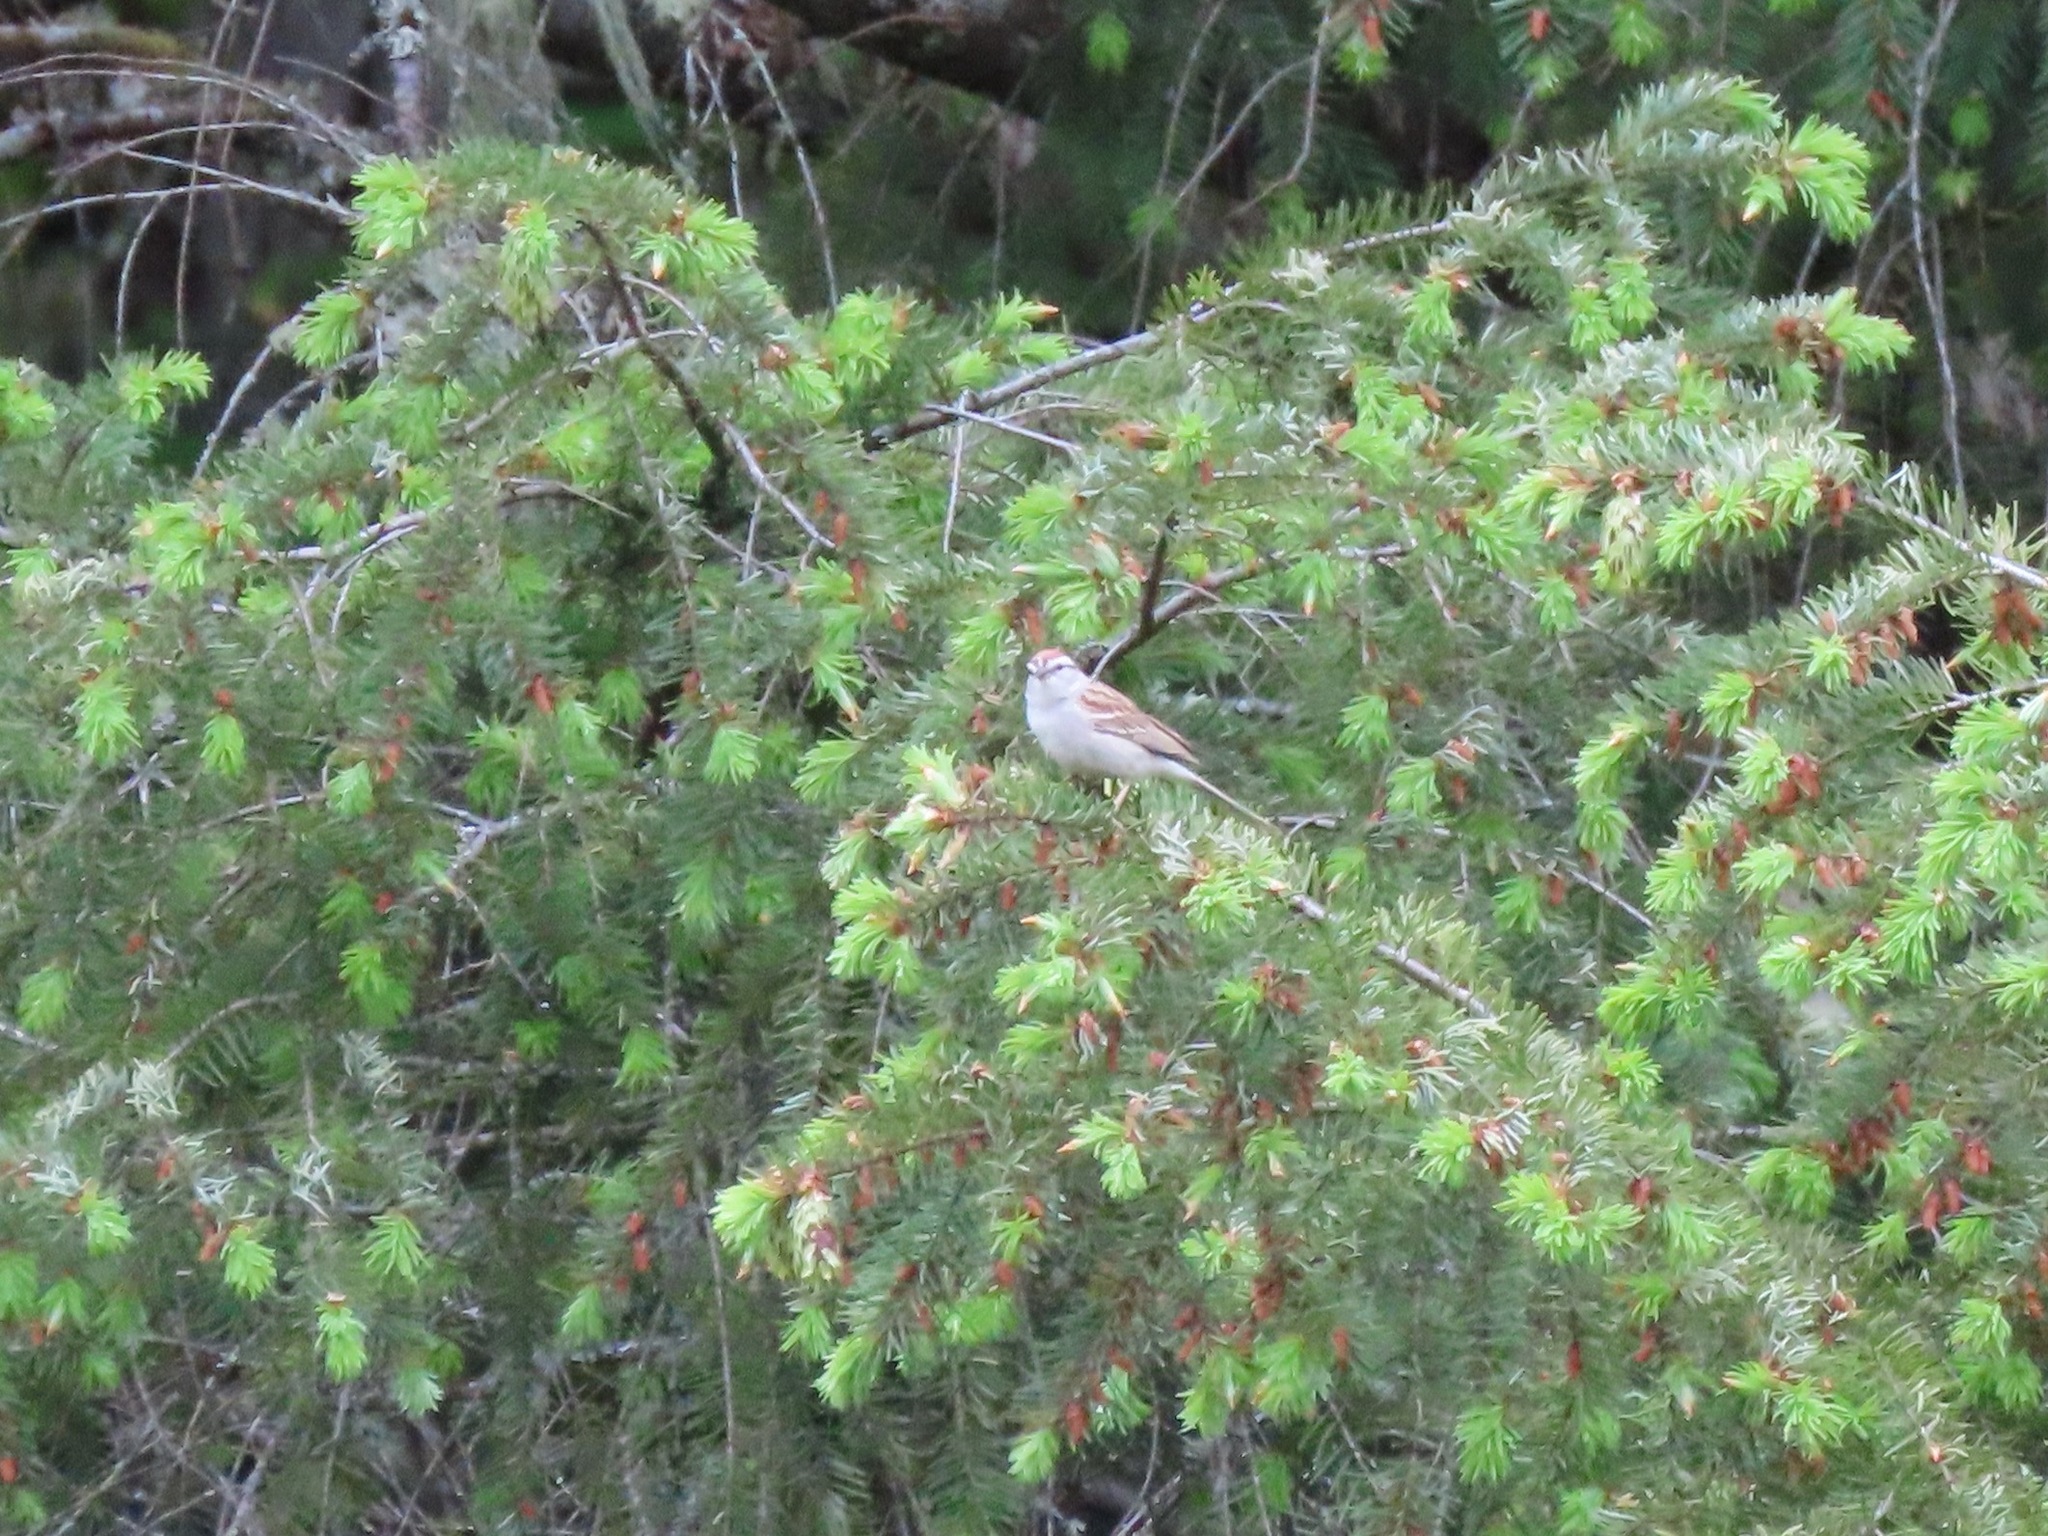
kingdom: Animalia
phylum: Chordata
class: Aves
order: Passeriformes
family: Passerellidae
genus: Spizella
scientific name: Spizella passerina
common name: Chipping sparrow
